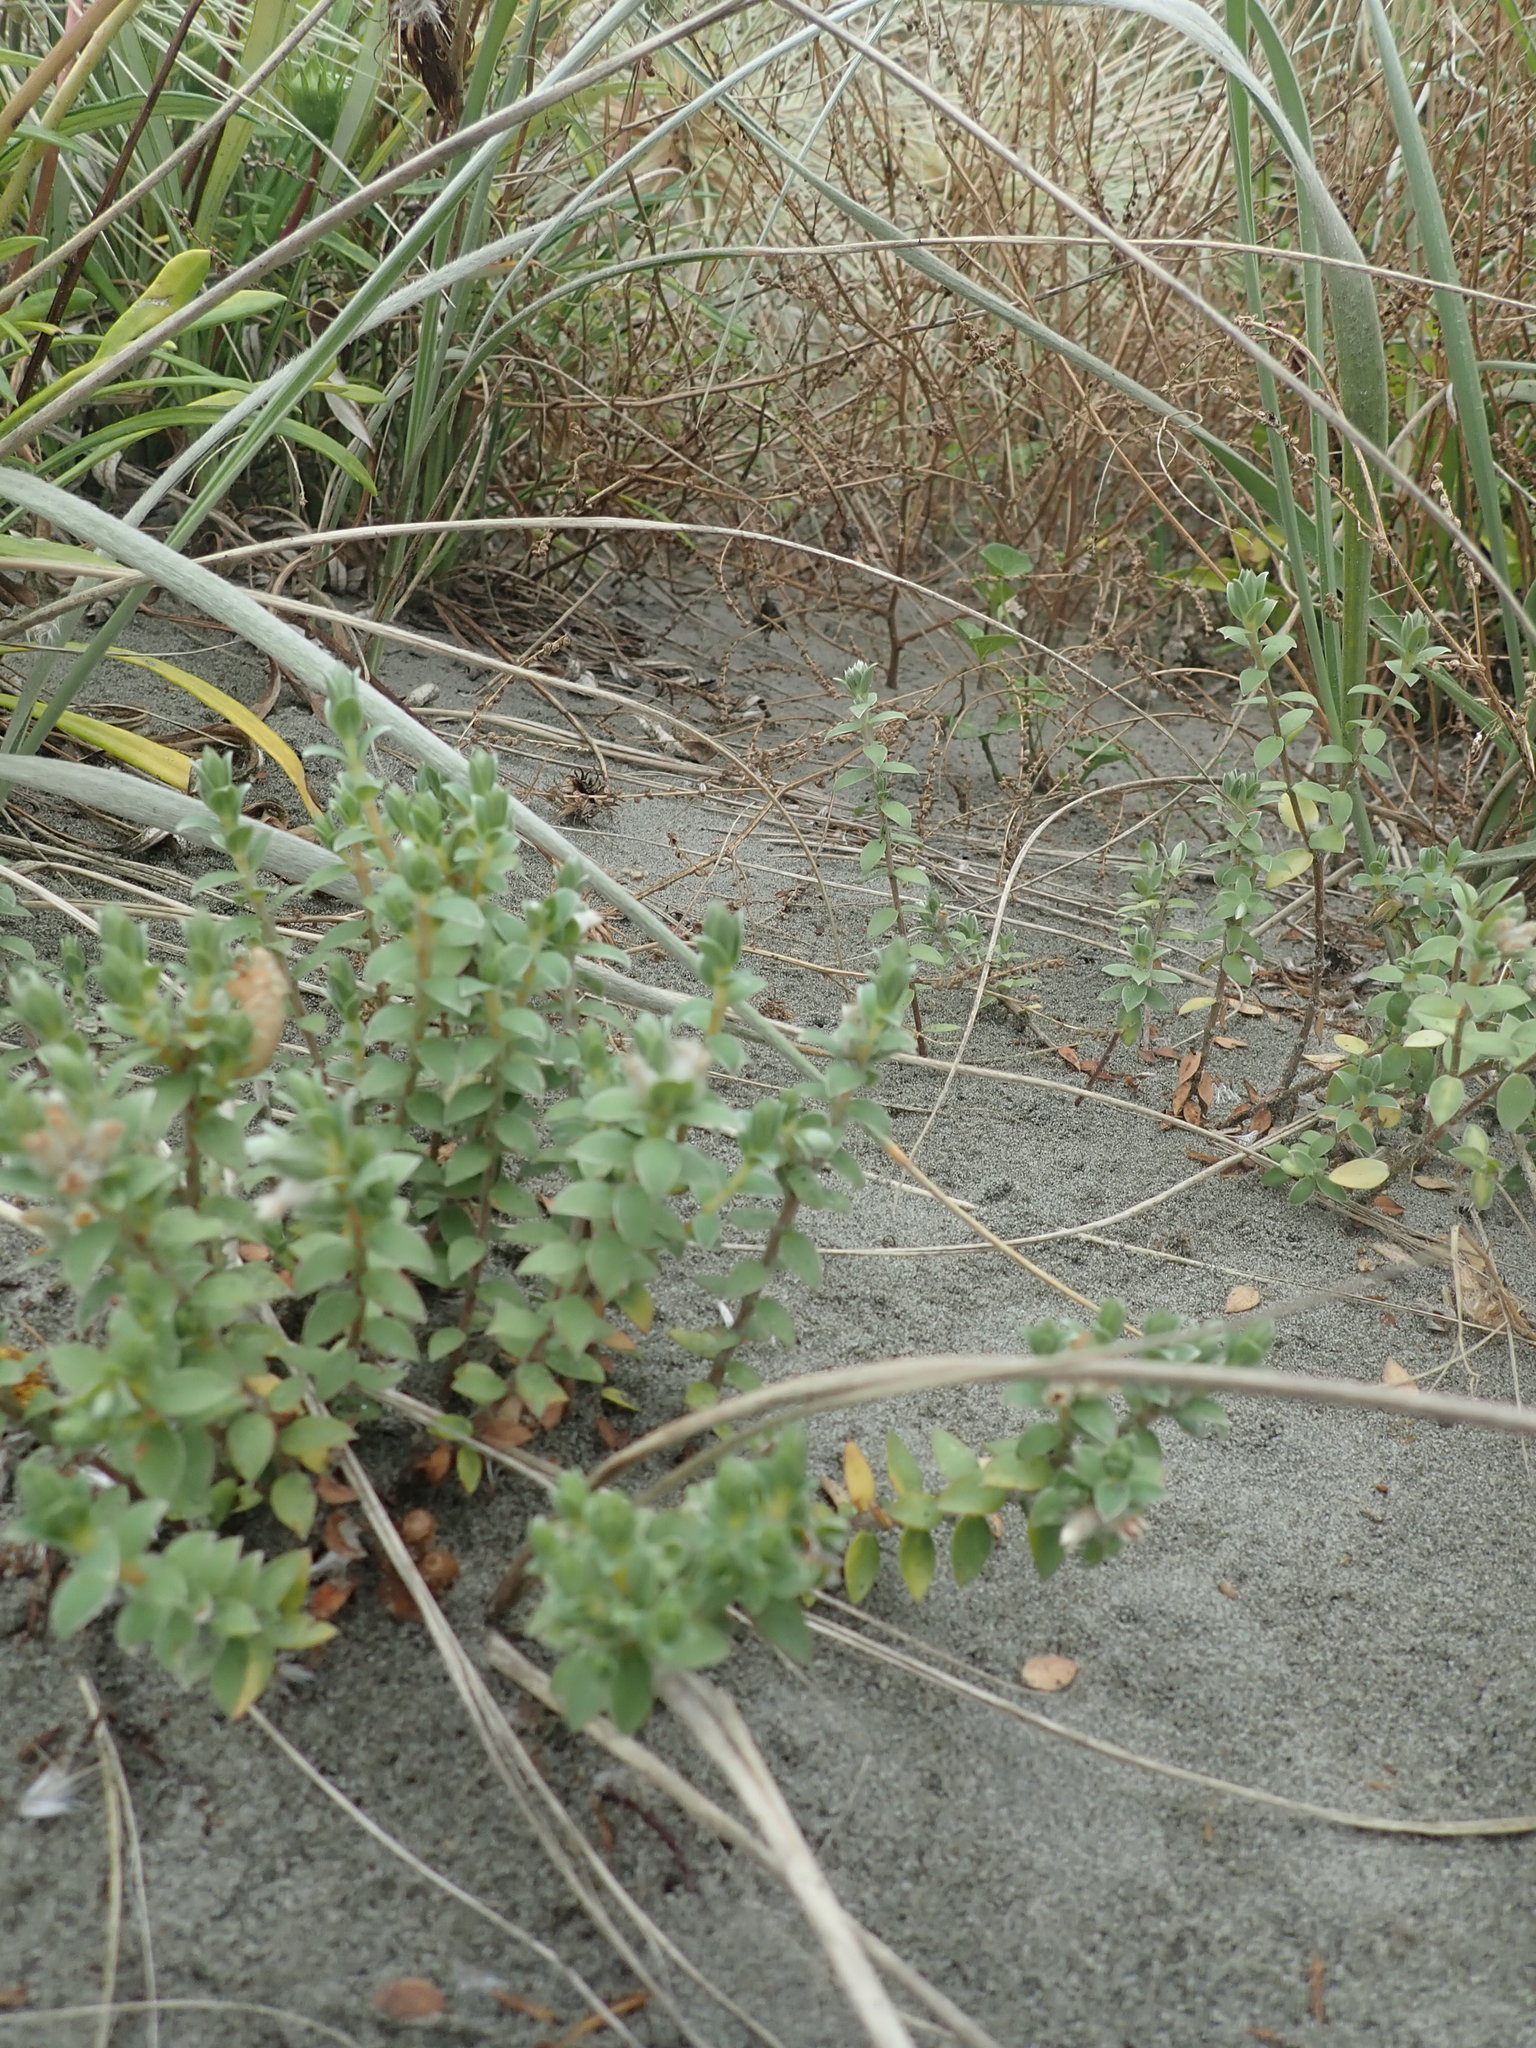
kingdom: Plantae
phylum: Tracheophyta
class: Magnoliopsida
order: Malvales
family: Thymelaeaceae
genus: Pimelea
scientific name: Pimelea villosa
